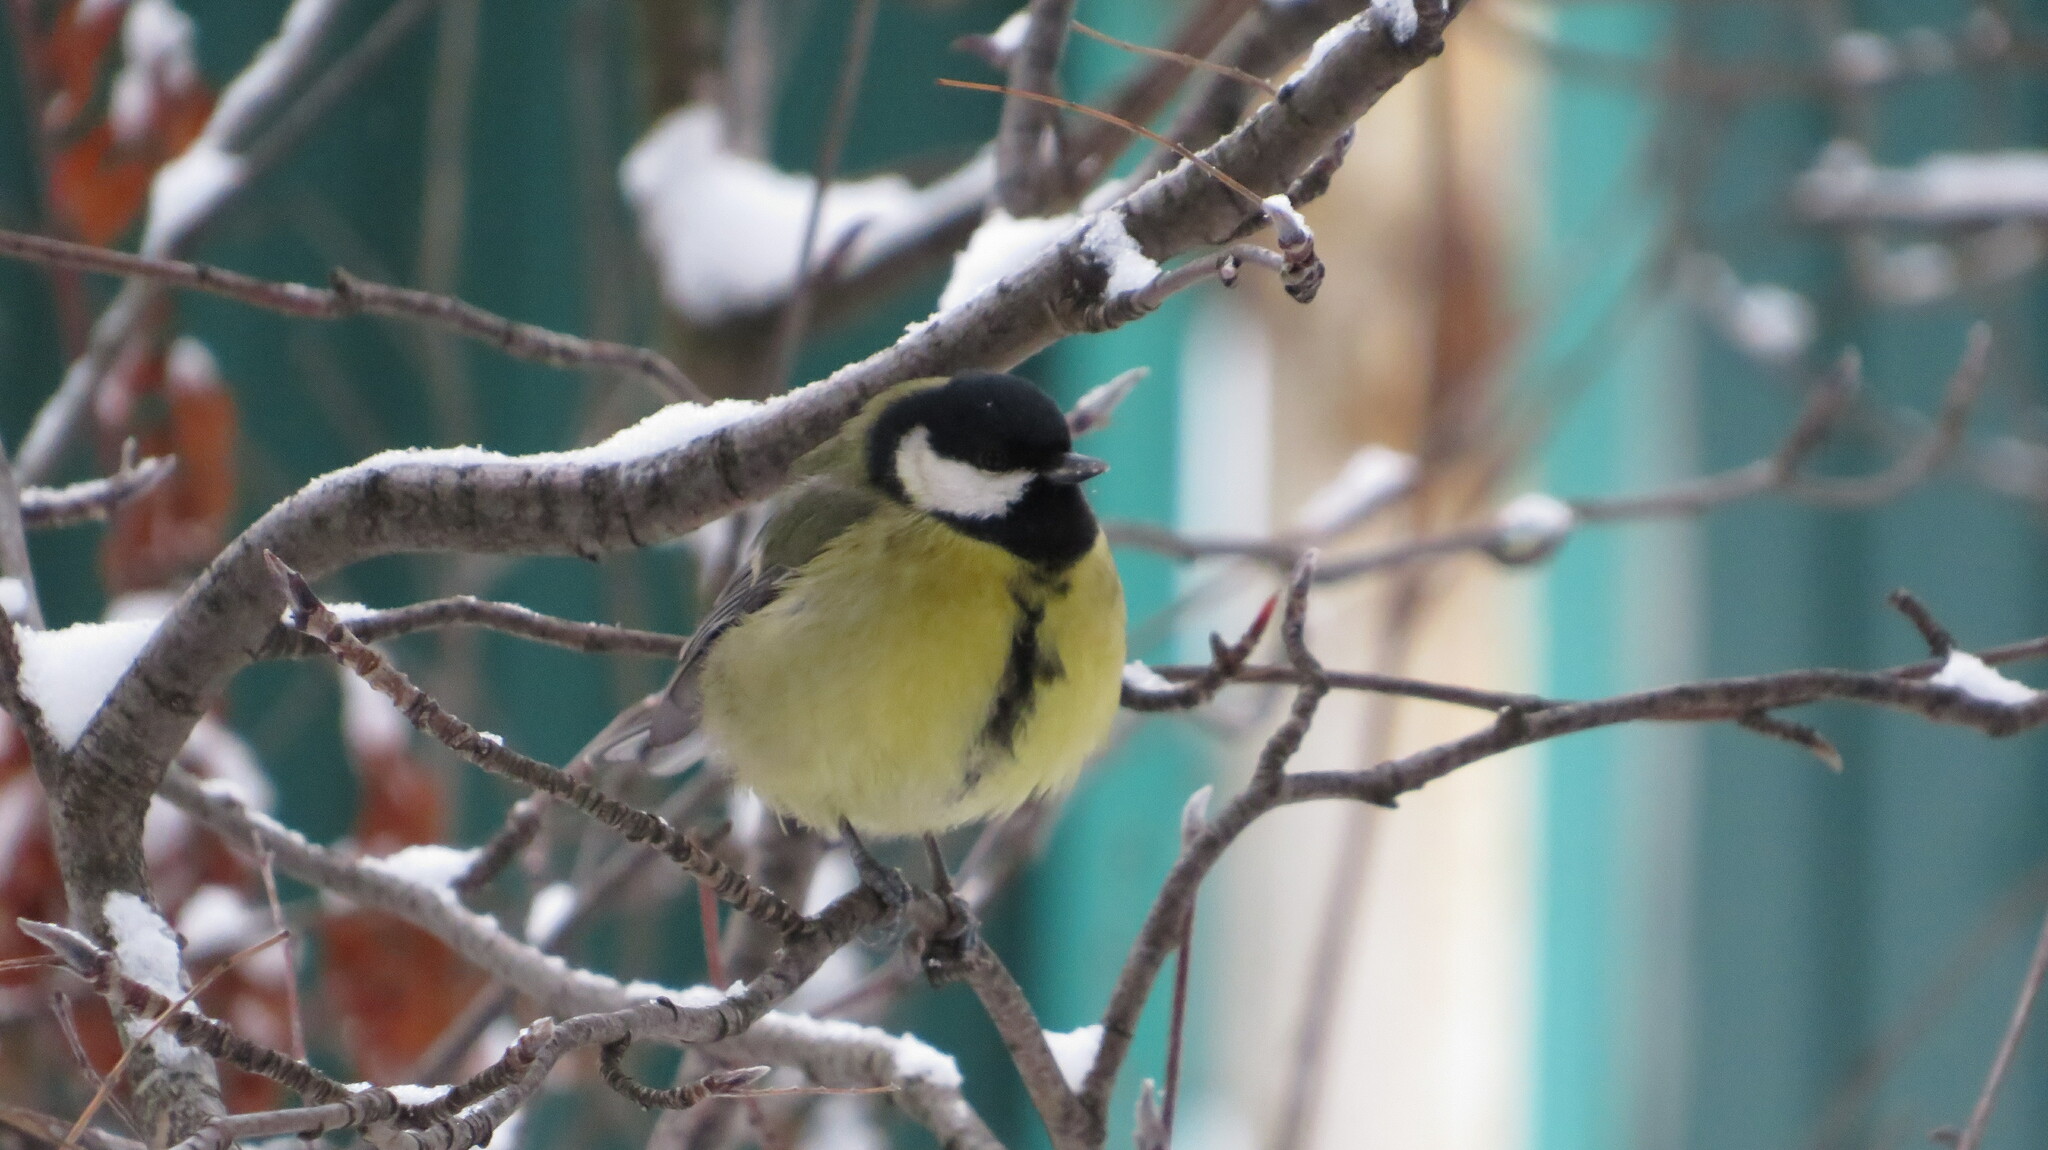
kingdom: Animalia
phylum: Chordata
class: Aves
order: Passeriformes
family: Paridae
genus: Parus
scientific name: Parus major
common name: Great tit
